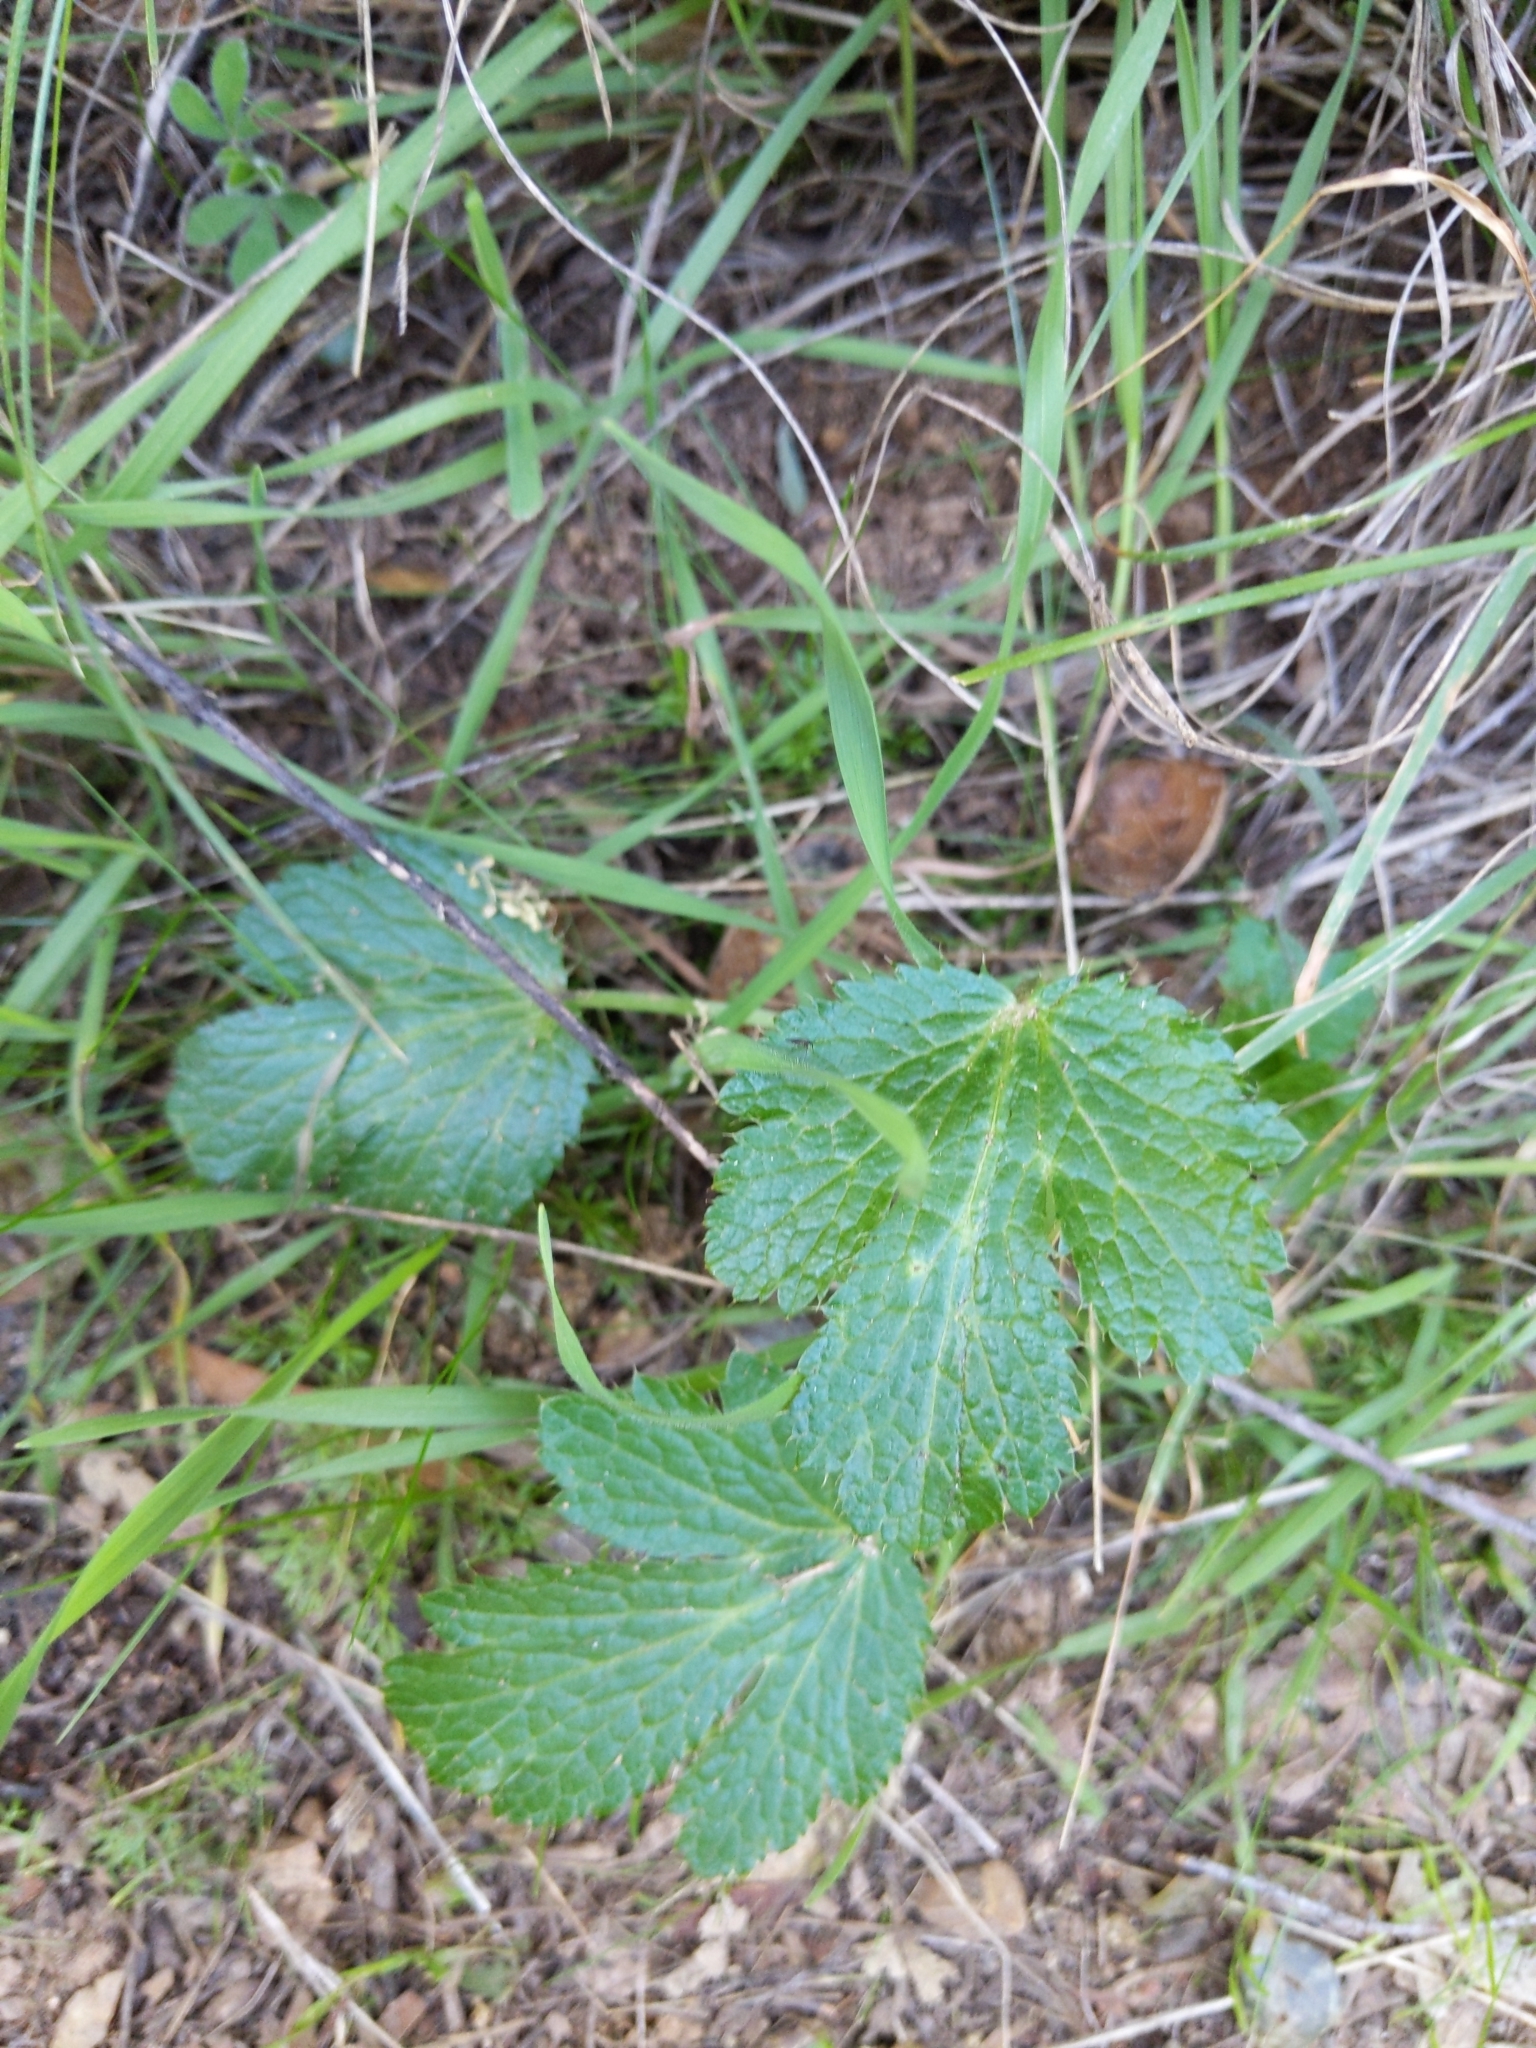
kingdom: Plantae
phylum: Tracheophyta
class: Magnoliopsida
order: Apiales
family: Apiaceae
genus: Sanicula
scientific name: Sanicula crassicaulis
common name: Western snakeroot
